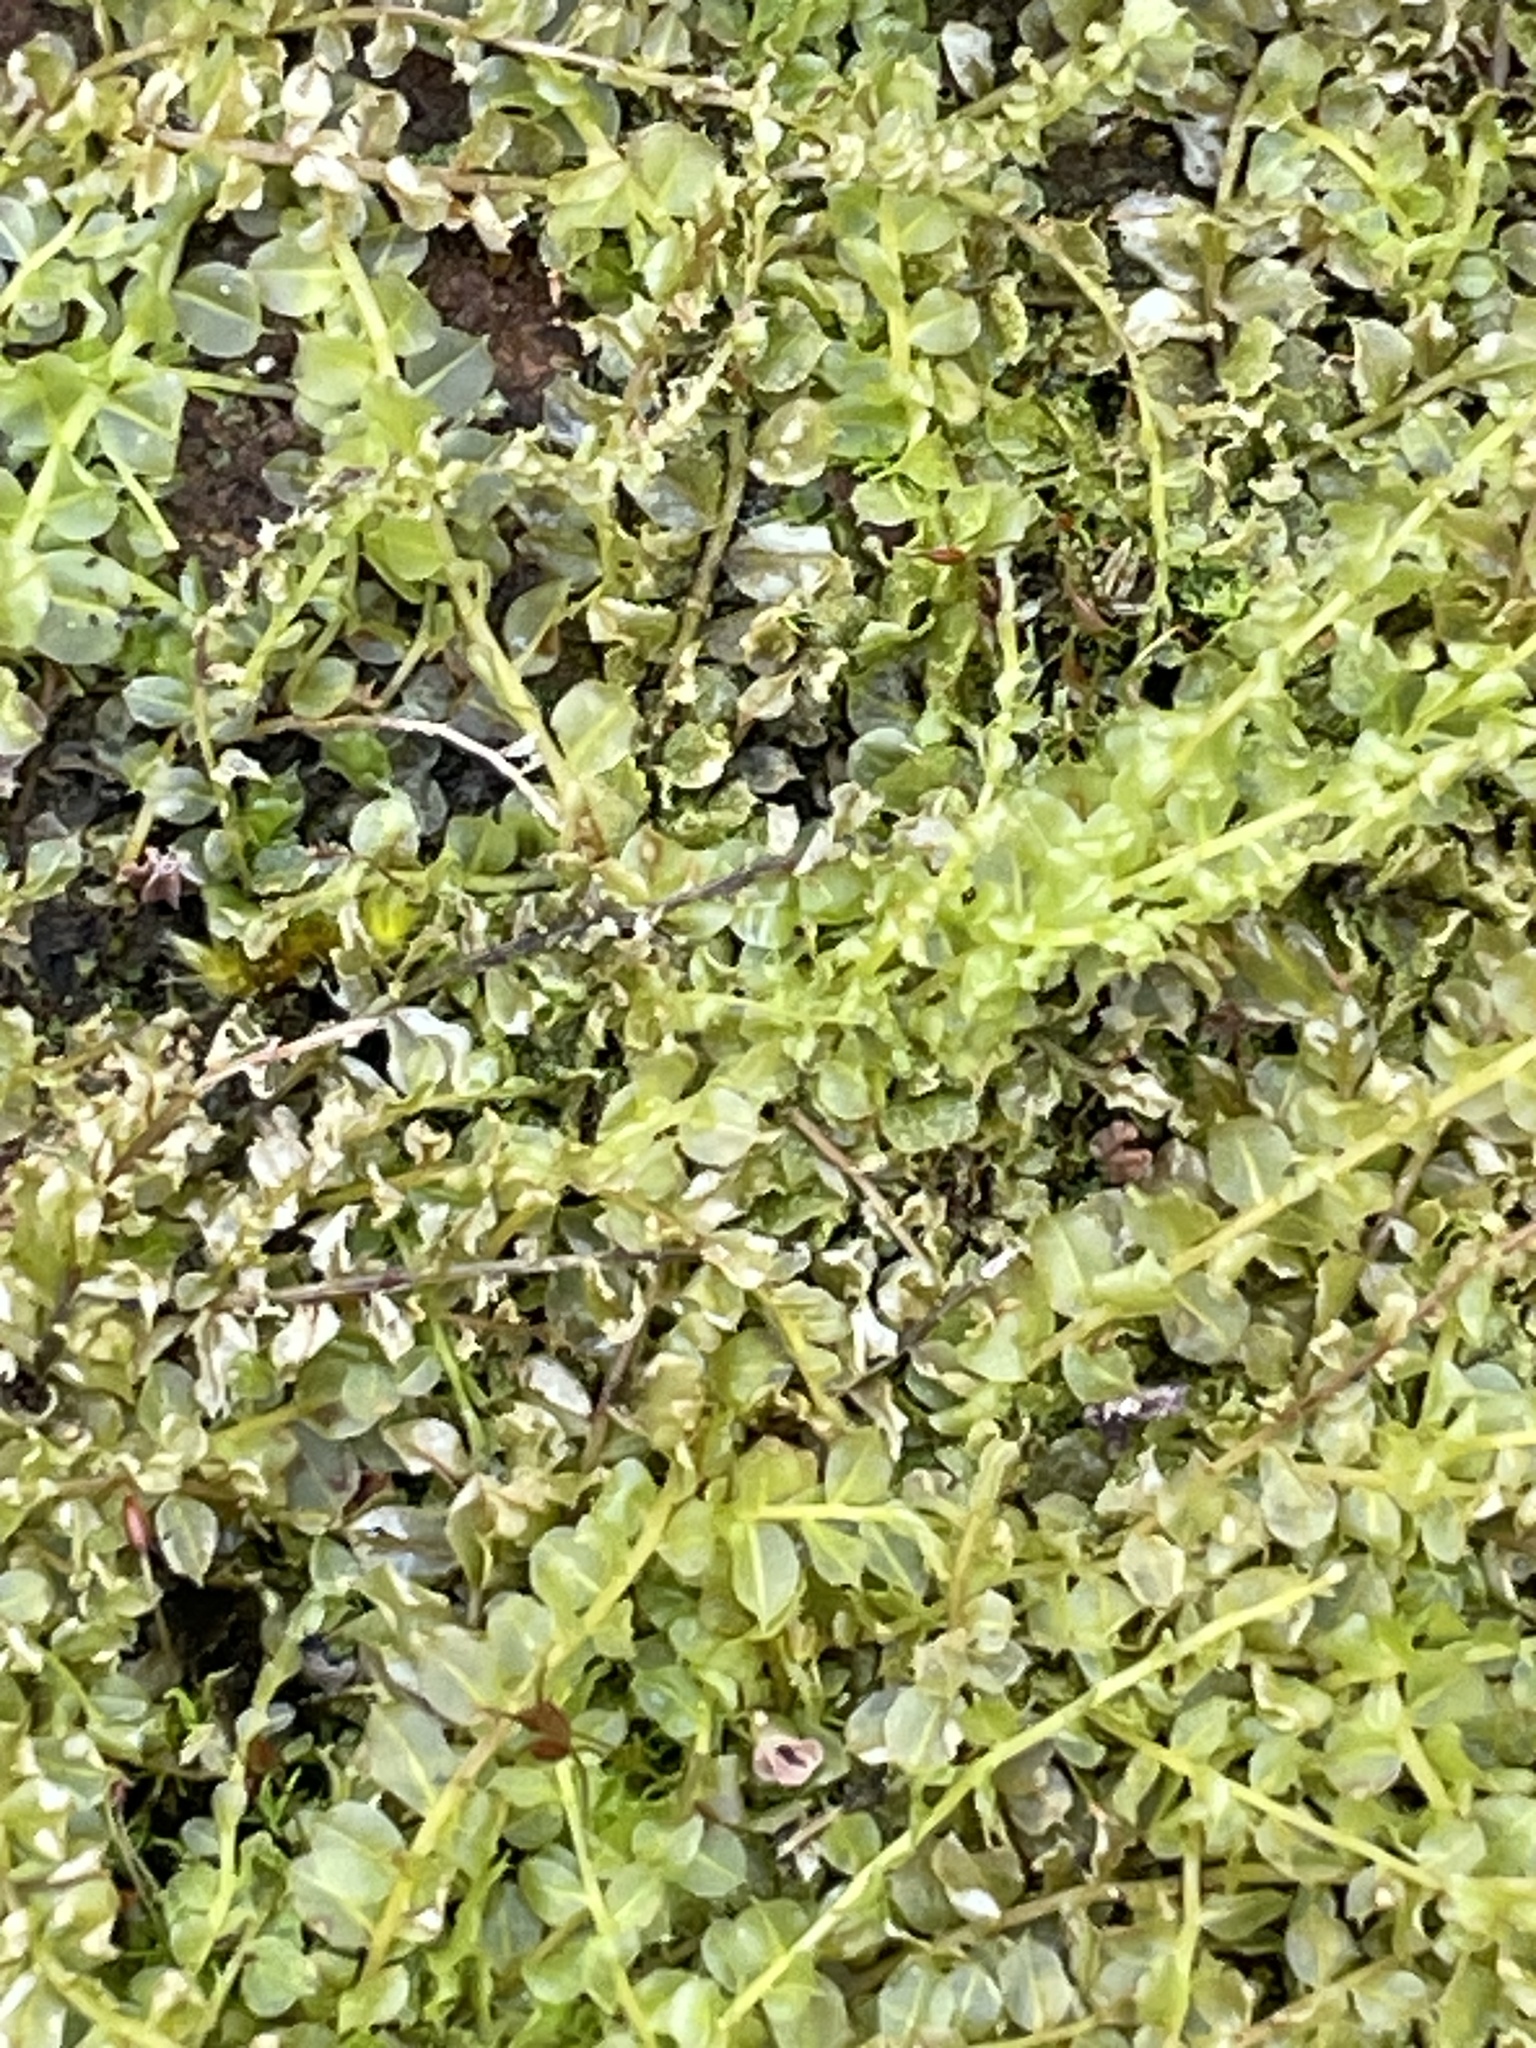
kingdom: Plantae
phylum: Bryophyta
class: Bryopsida
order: Bryales
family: Mniaceae
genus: Plagiomnium
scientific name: Plagiomnium cuspidatum
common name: Woodsy leafy moss
